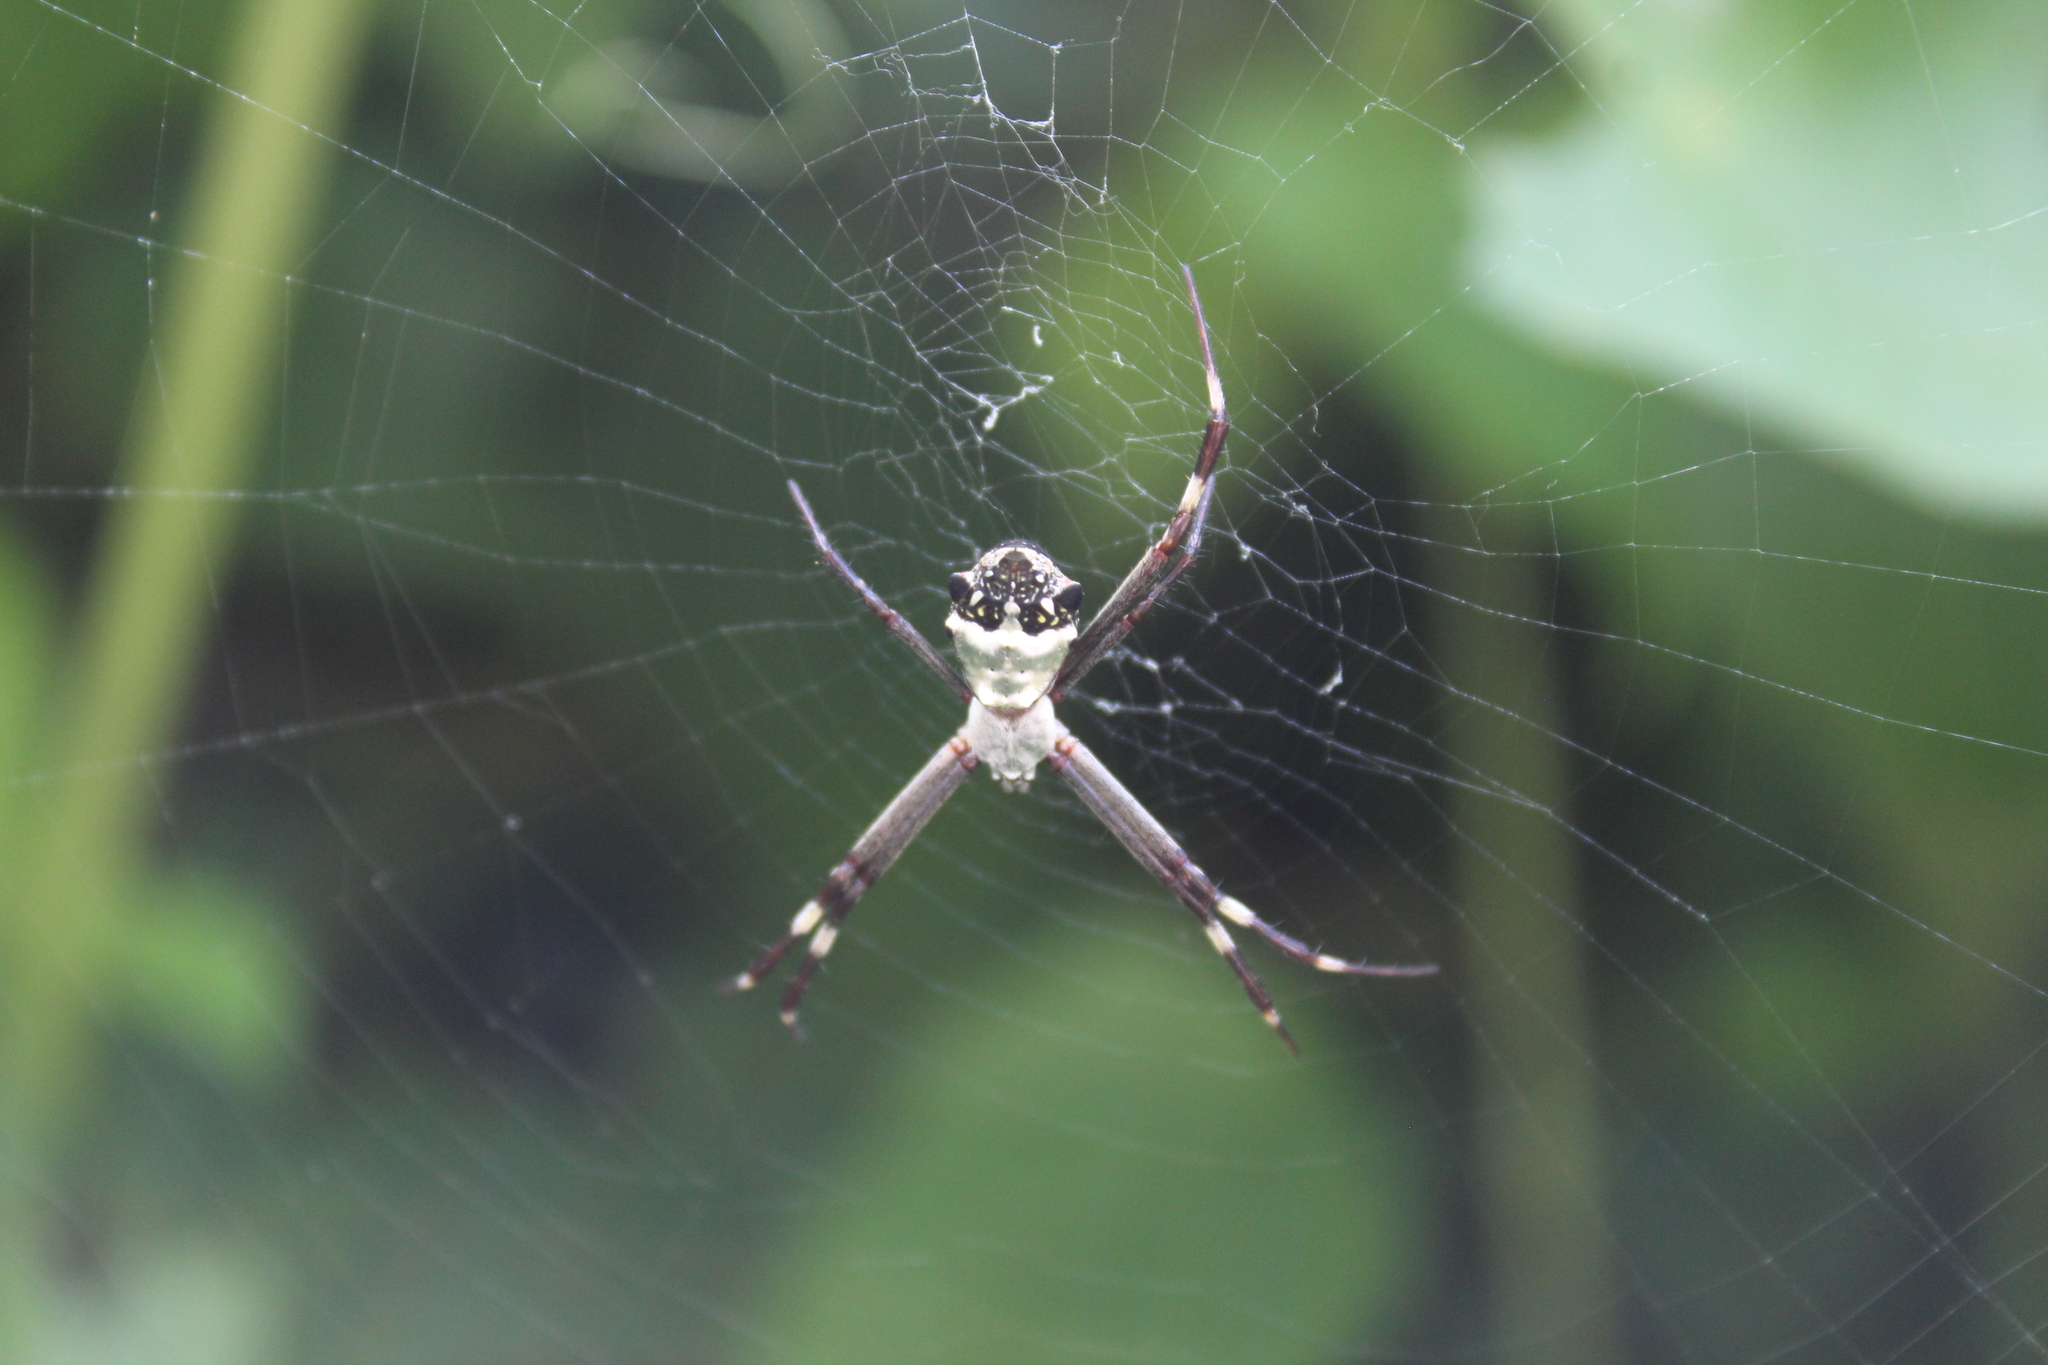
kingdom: Animalia
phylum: Arthropoda
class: Arachnida
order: Araneae
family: Araneidae
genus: Argiope
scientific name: Argiope argentata
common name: Orb weavers
